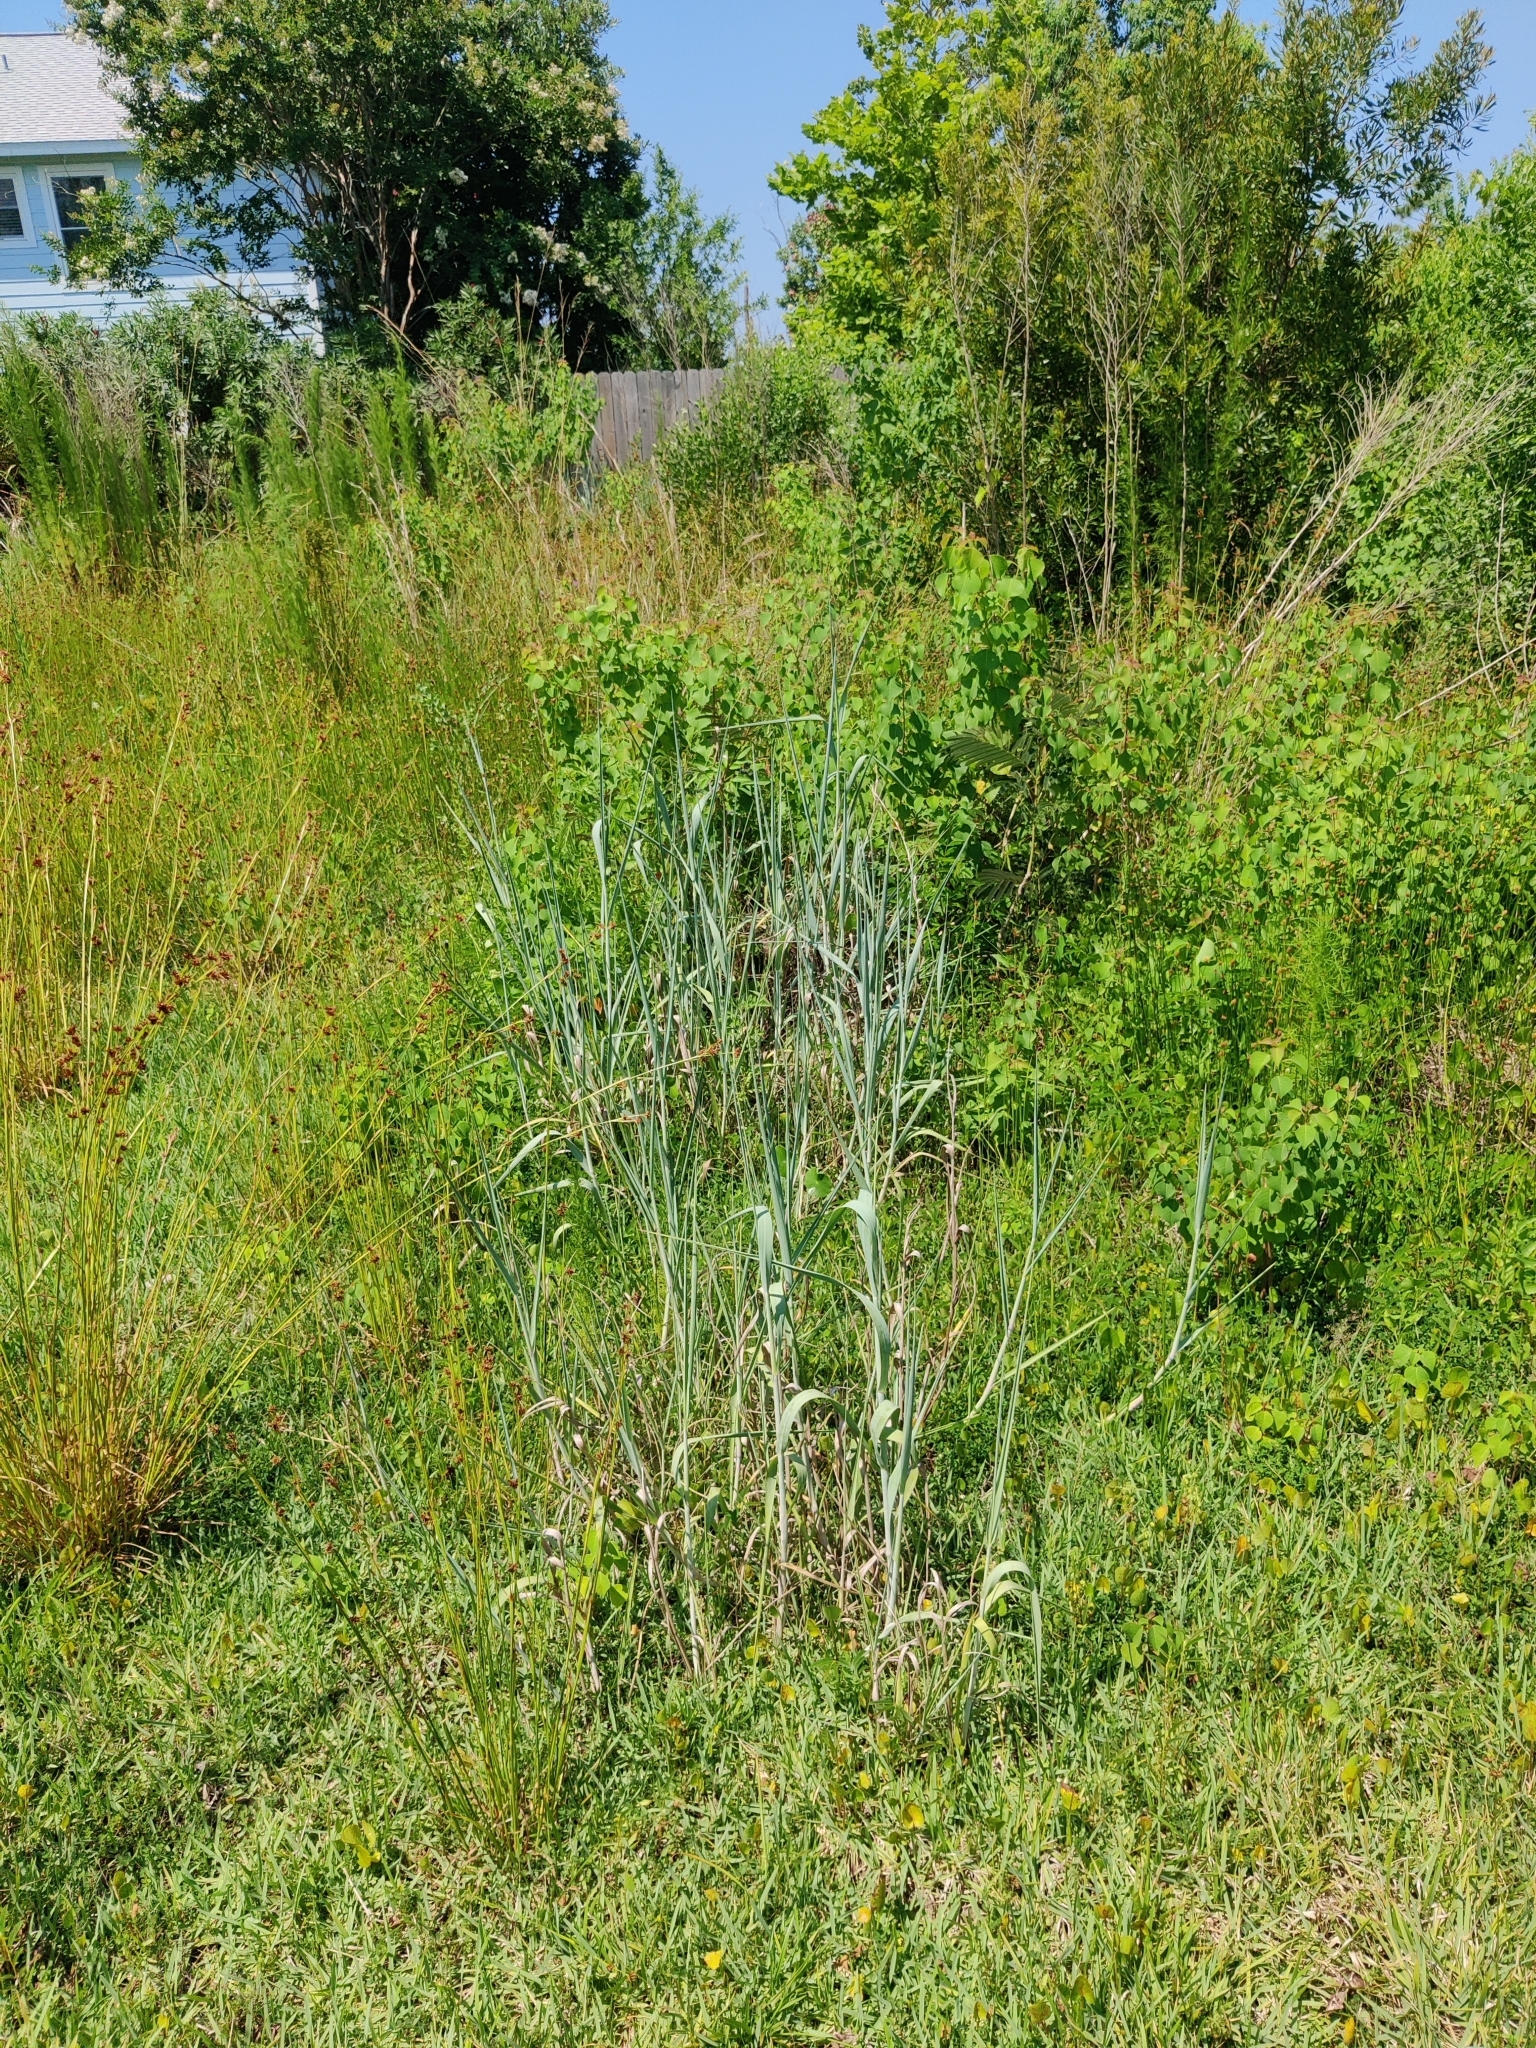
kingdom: Plantae
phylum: Tracheophyta
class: Liliopsida
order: Poales
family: Poaceae
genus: Panicum
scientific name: Panicum amarum
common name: Bitter panicum
